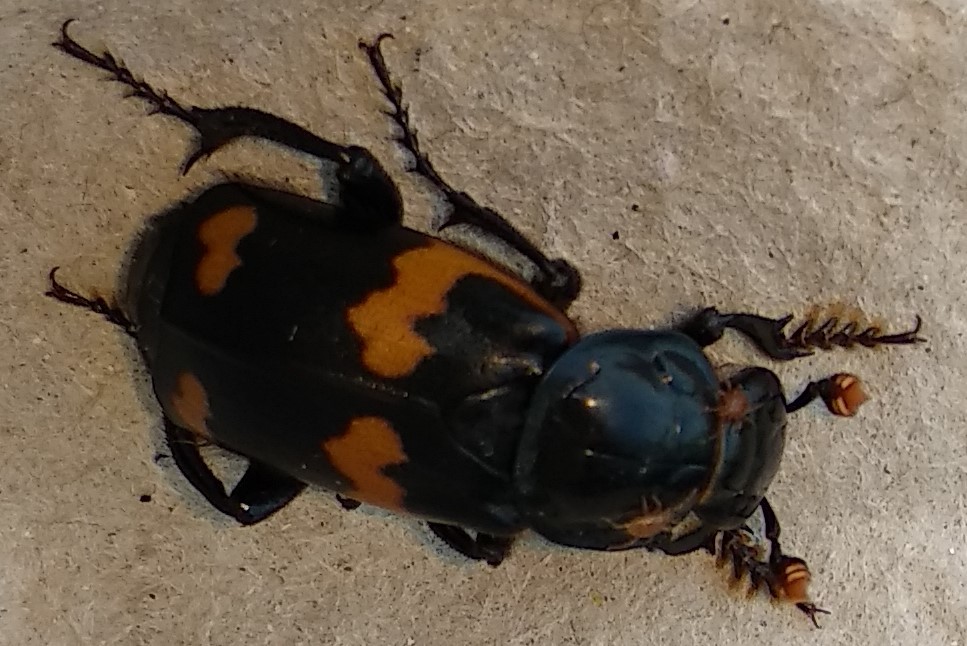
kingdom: Animalia
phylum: Arthropoda
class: Insecta
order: Coleoptera
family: Staphylinidae
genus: Nicrophorus
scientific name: Nicrophorus sayi
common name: Say's burying beetle
